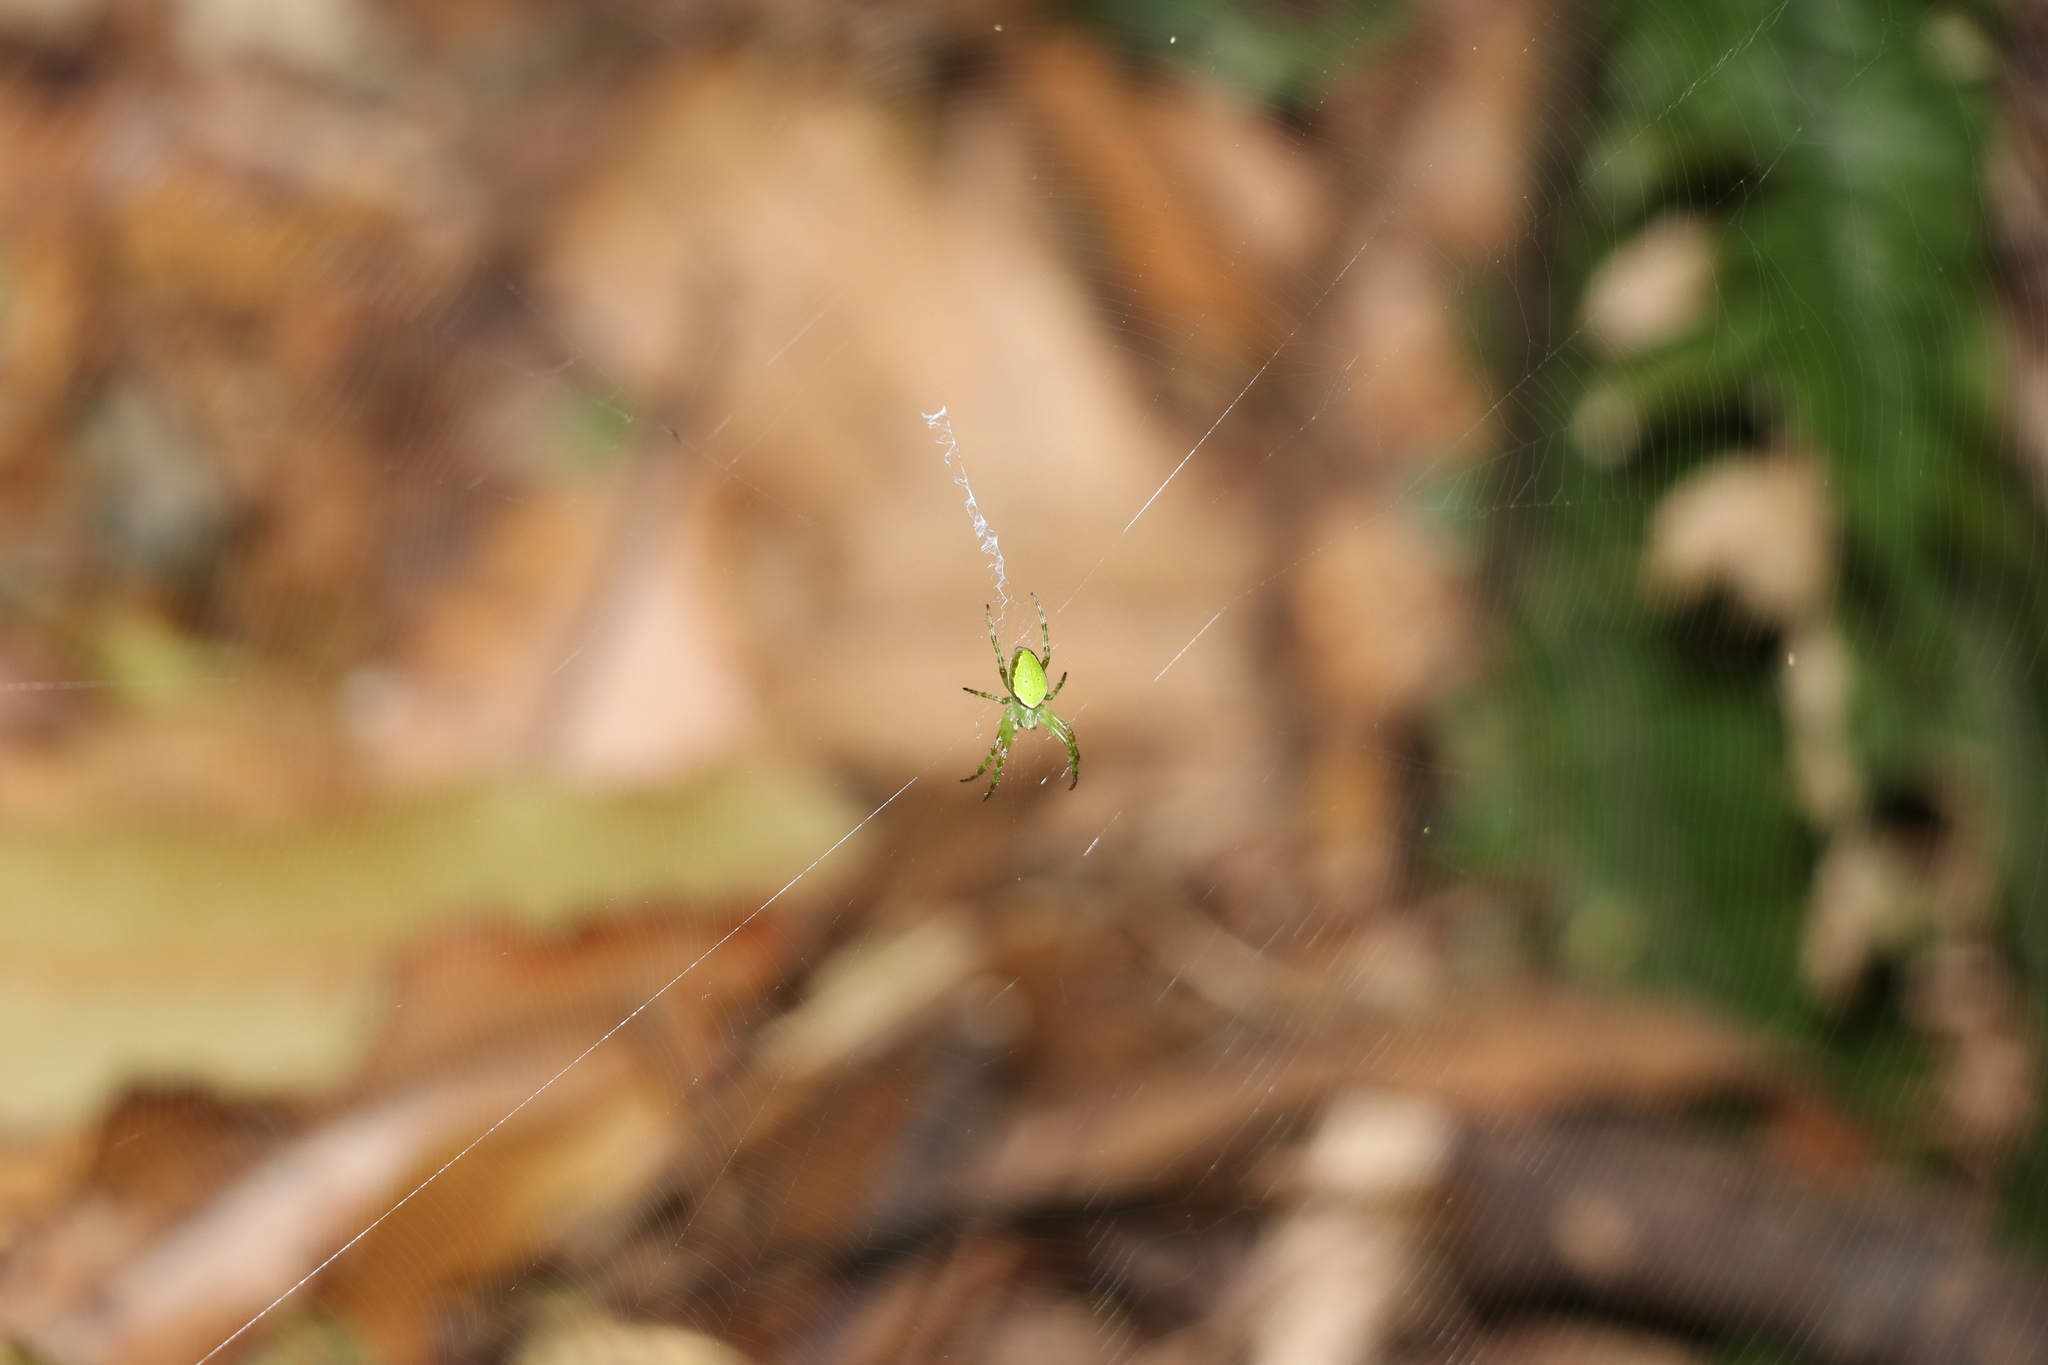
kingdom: Animalia
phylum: Arthropoda
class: Arachnida
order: Araneae
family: Araneidae
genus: Colaranea
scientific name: Colaranea viriditas
